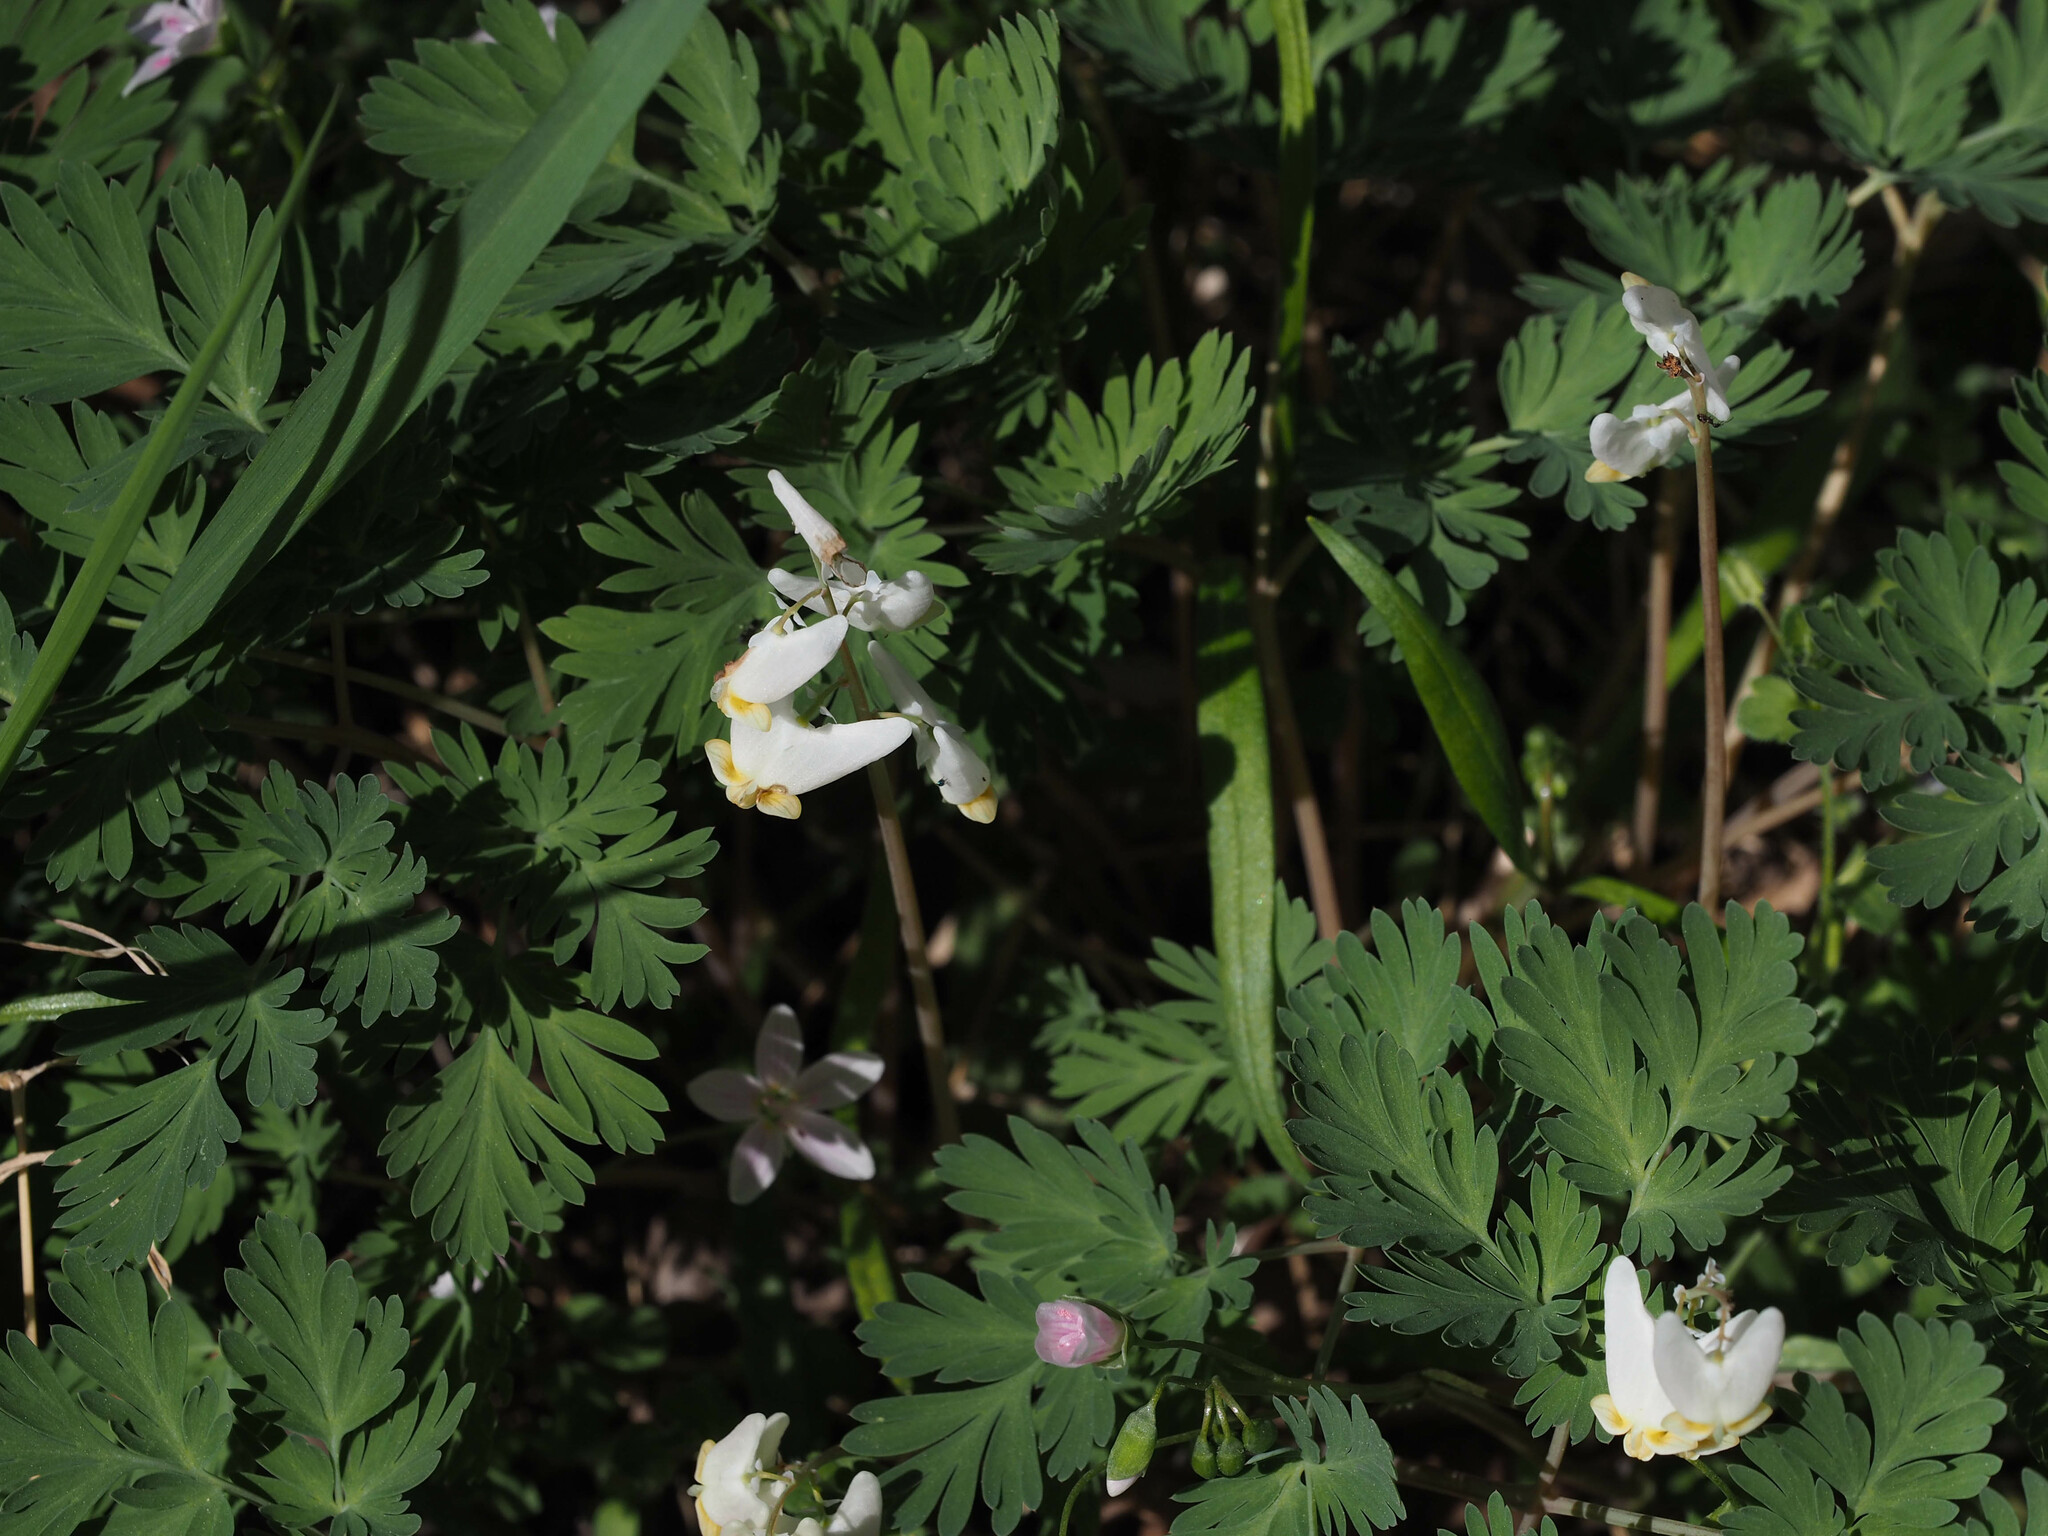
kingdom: Plantae
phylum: Tracheophyta
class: Magnoliopsida
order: Ranunculales
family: Papaveraceae
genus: Dicentra
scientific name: Dicentra cucullaria
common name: Dutchman's breeches
